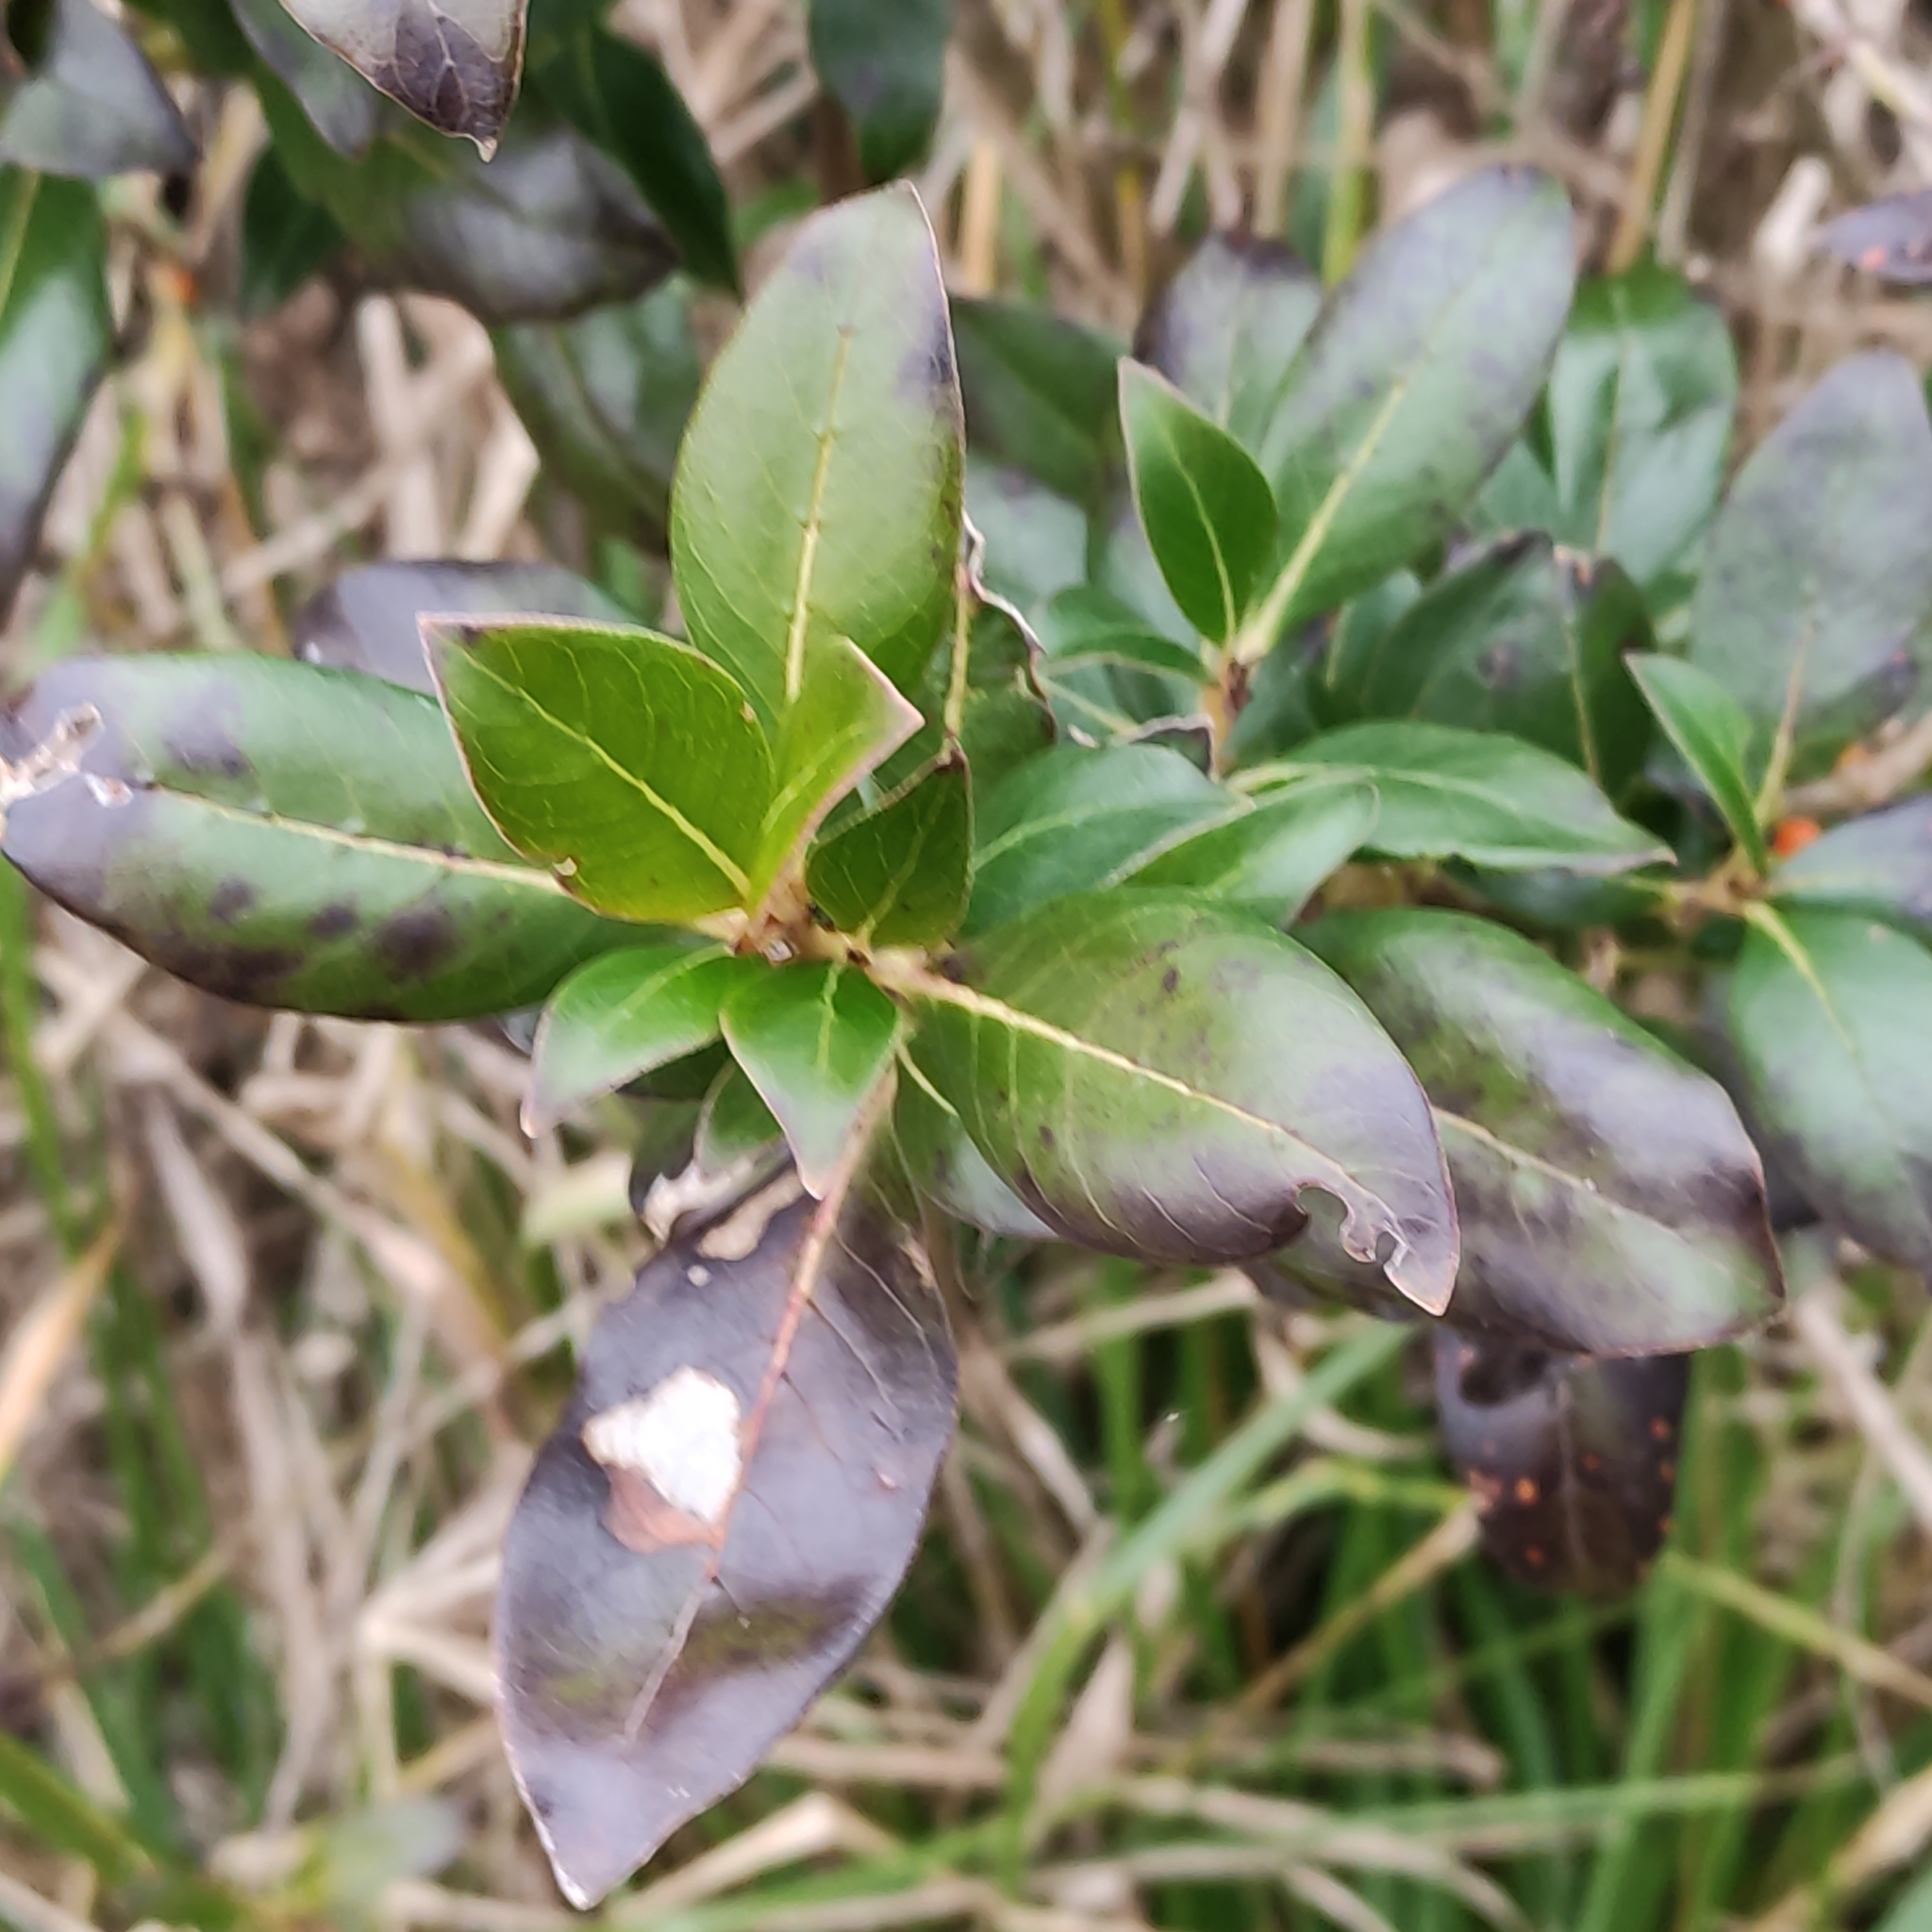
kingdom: Plantae
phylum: Tracheophyta
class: Magnoliopsida
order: Gentianales
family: Rubiaceae
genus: Coprosma
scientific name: Coprosma robusta
